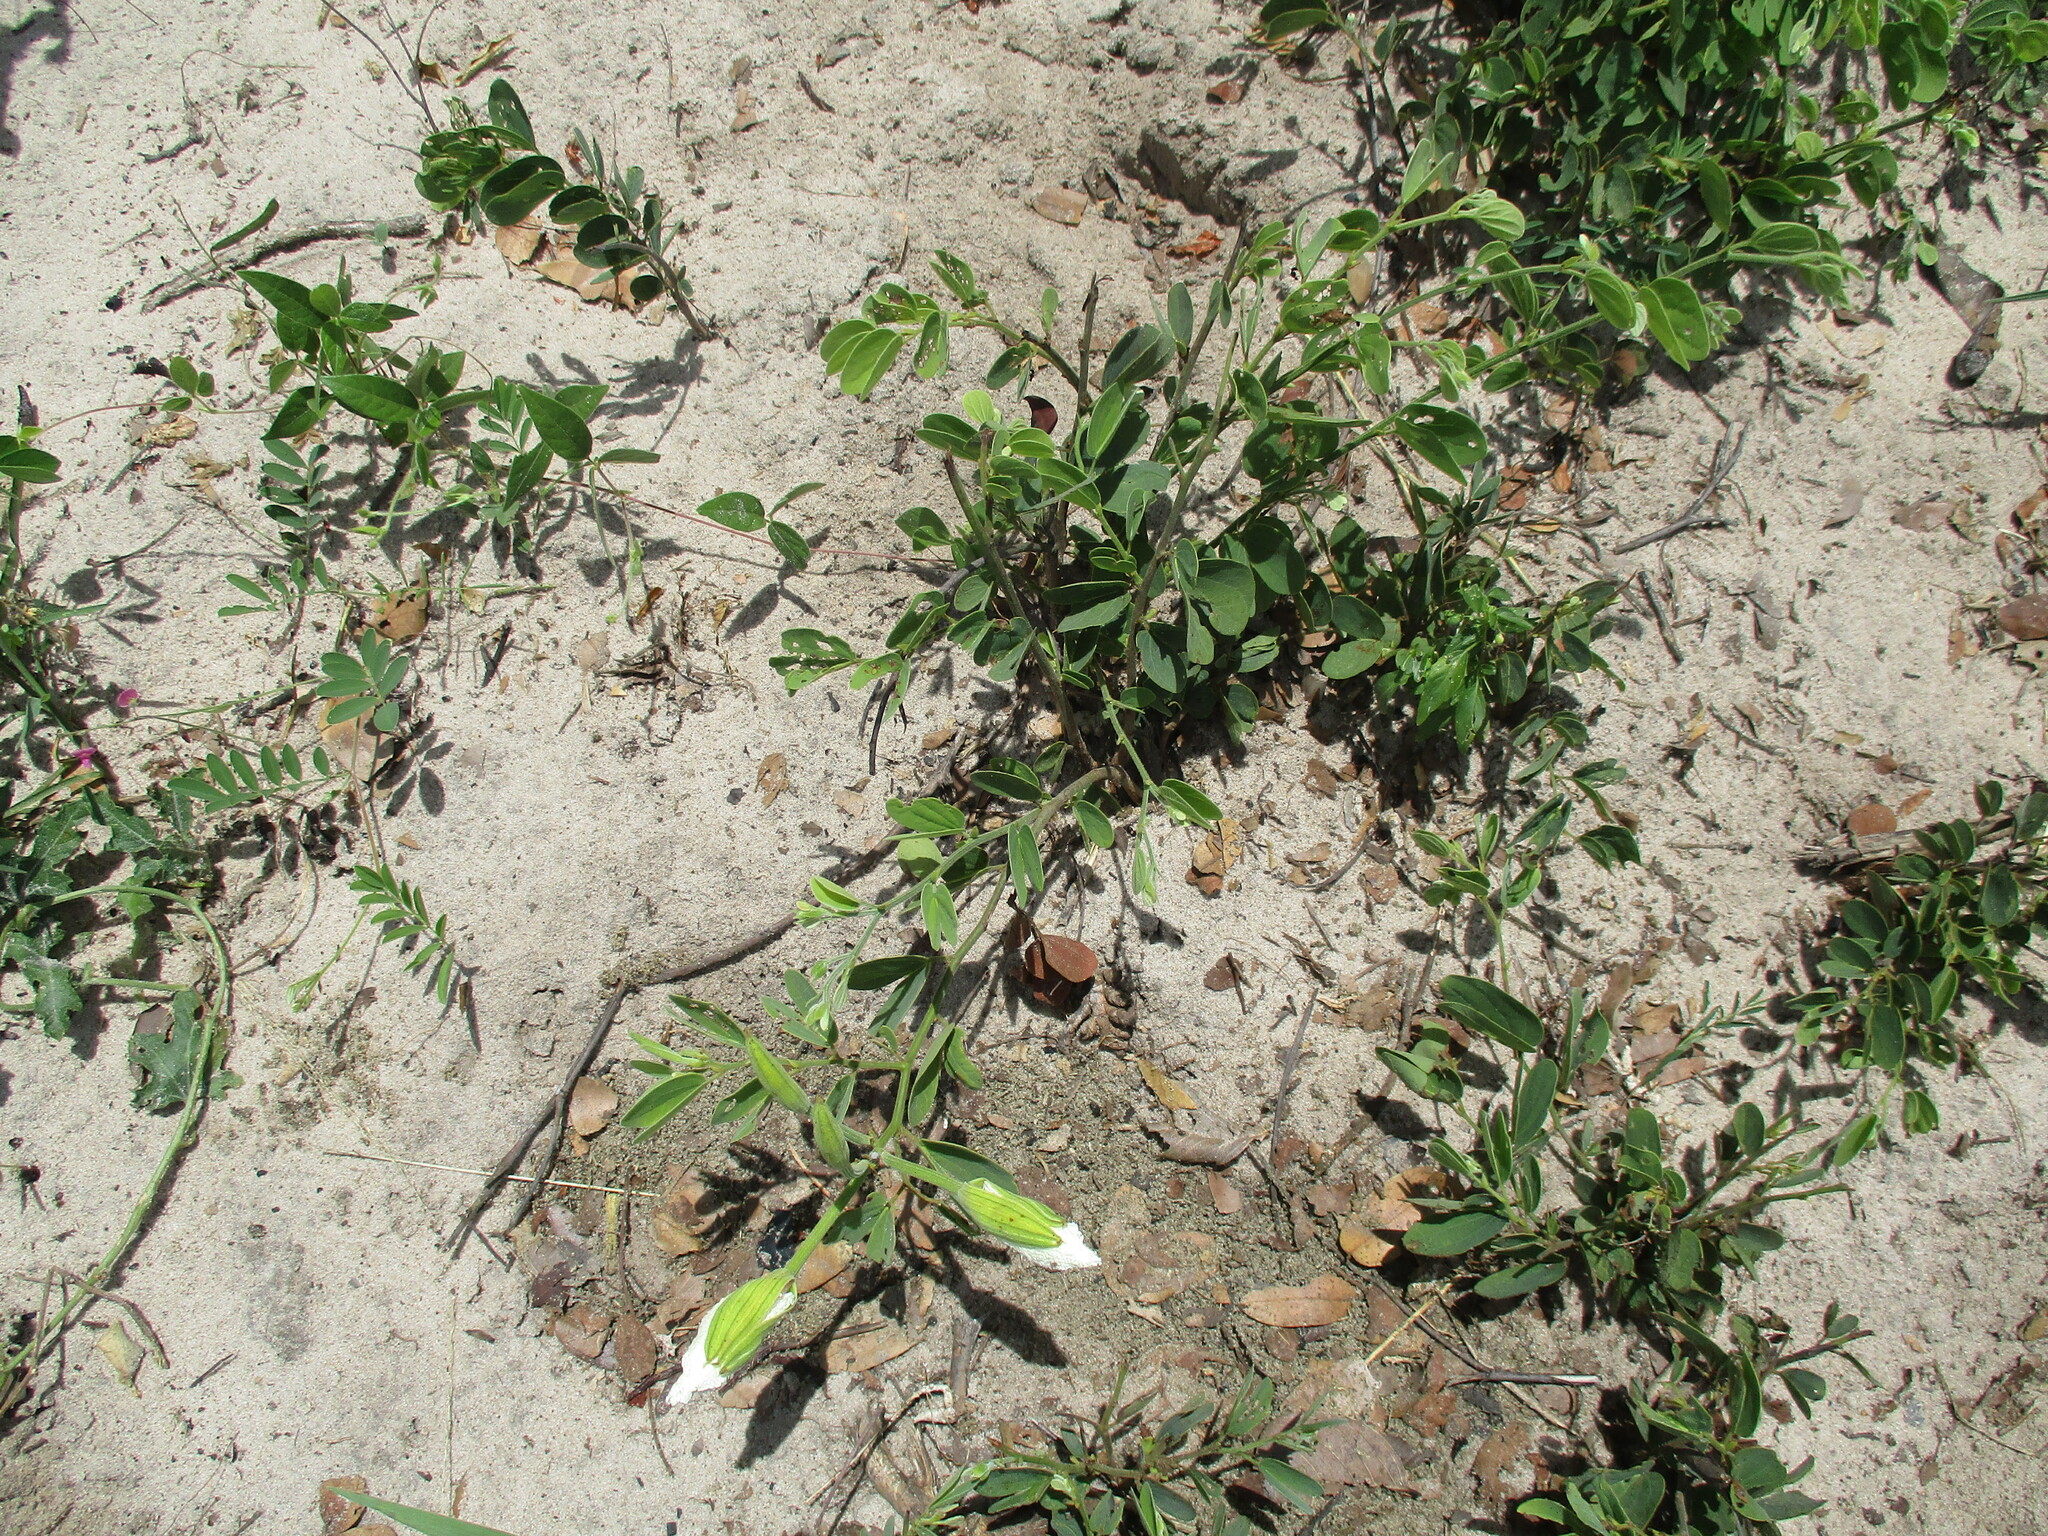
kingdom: Plantae
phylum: Tracheophyta
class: Magnoliopsida
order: Fabales
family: Fabaceae
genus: Bauhinia
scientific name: Bauhinia macrantha
